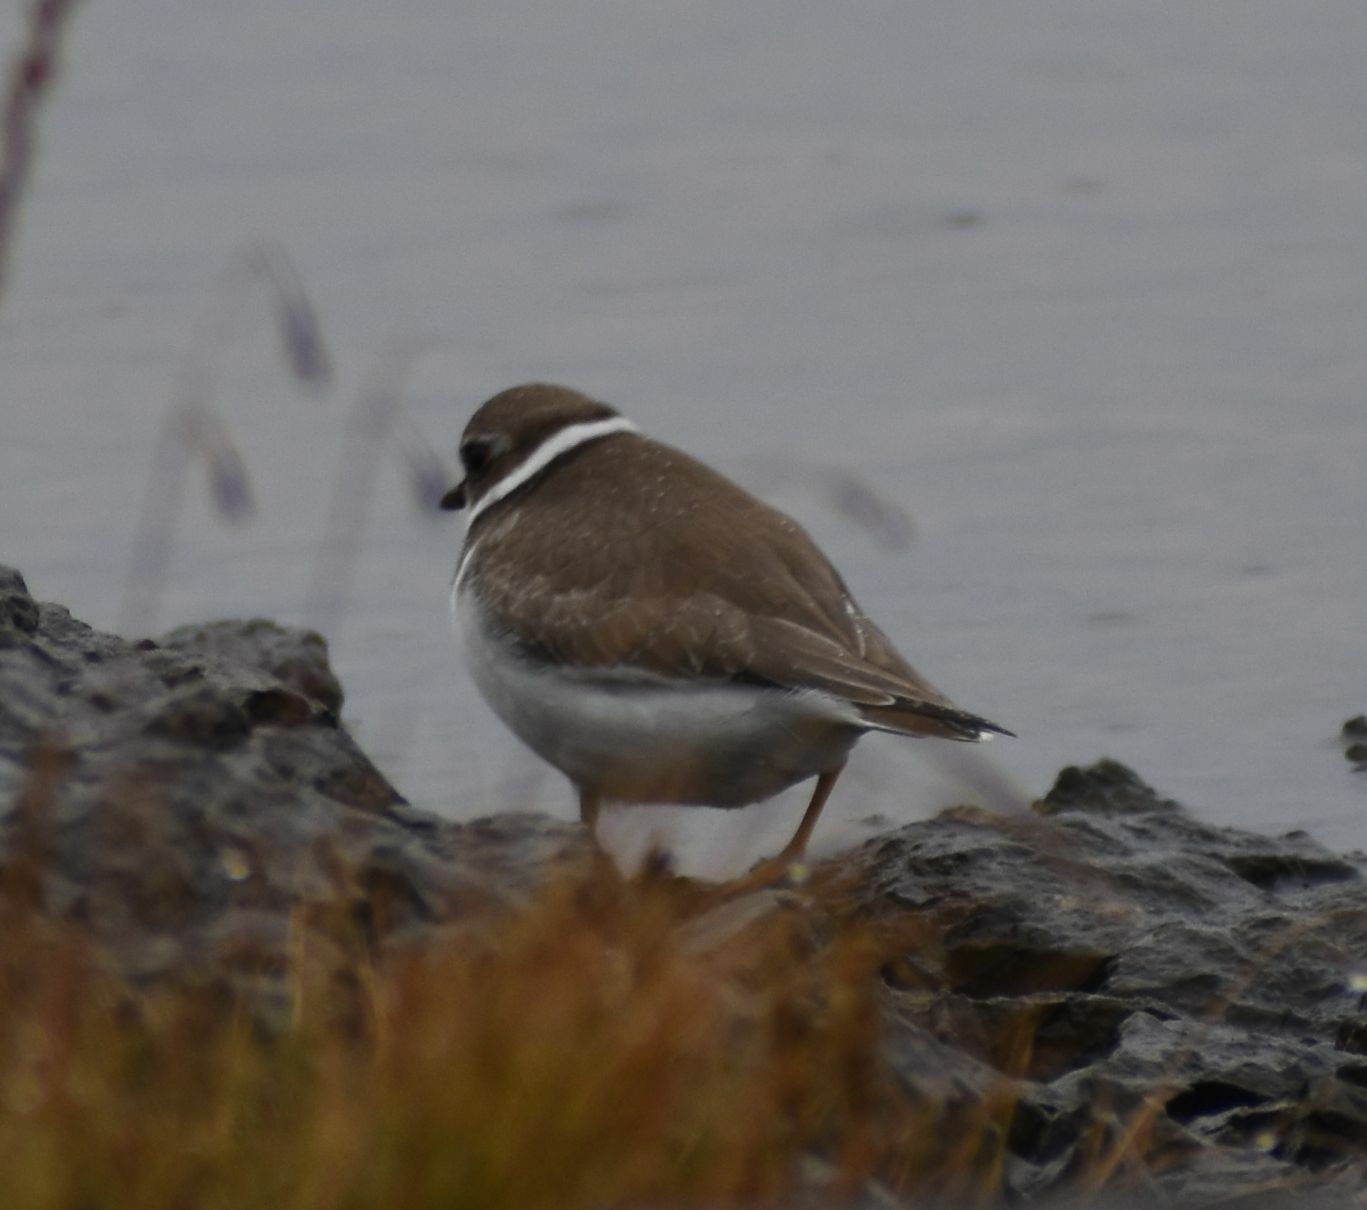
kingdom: Animalia
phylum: Chordata
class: Aves
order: Charadriiformes
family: Charadriidae
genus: Charadrius
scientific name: Charadrius semipalmatus
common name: Semipalmated plover
